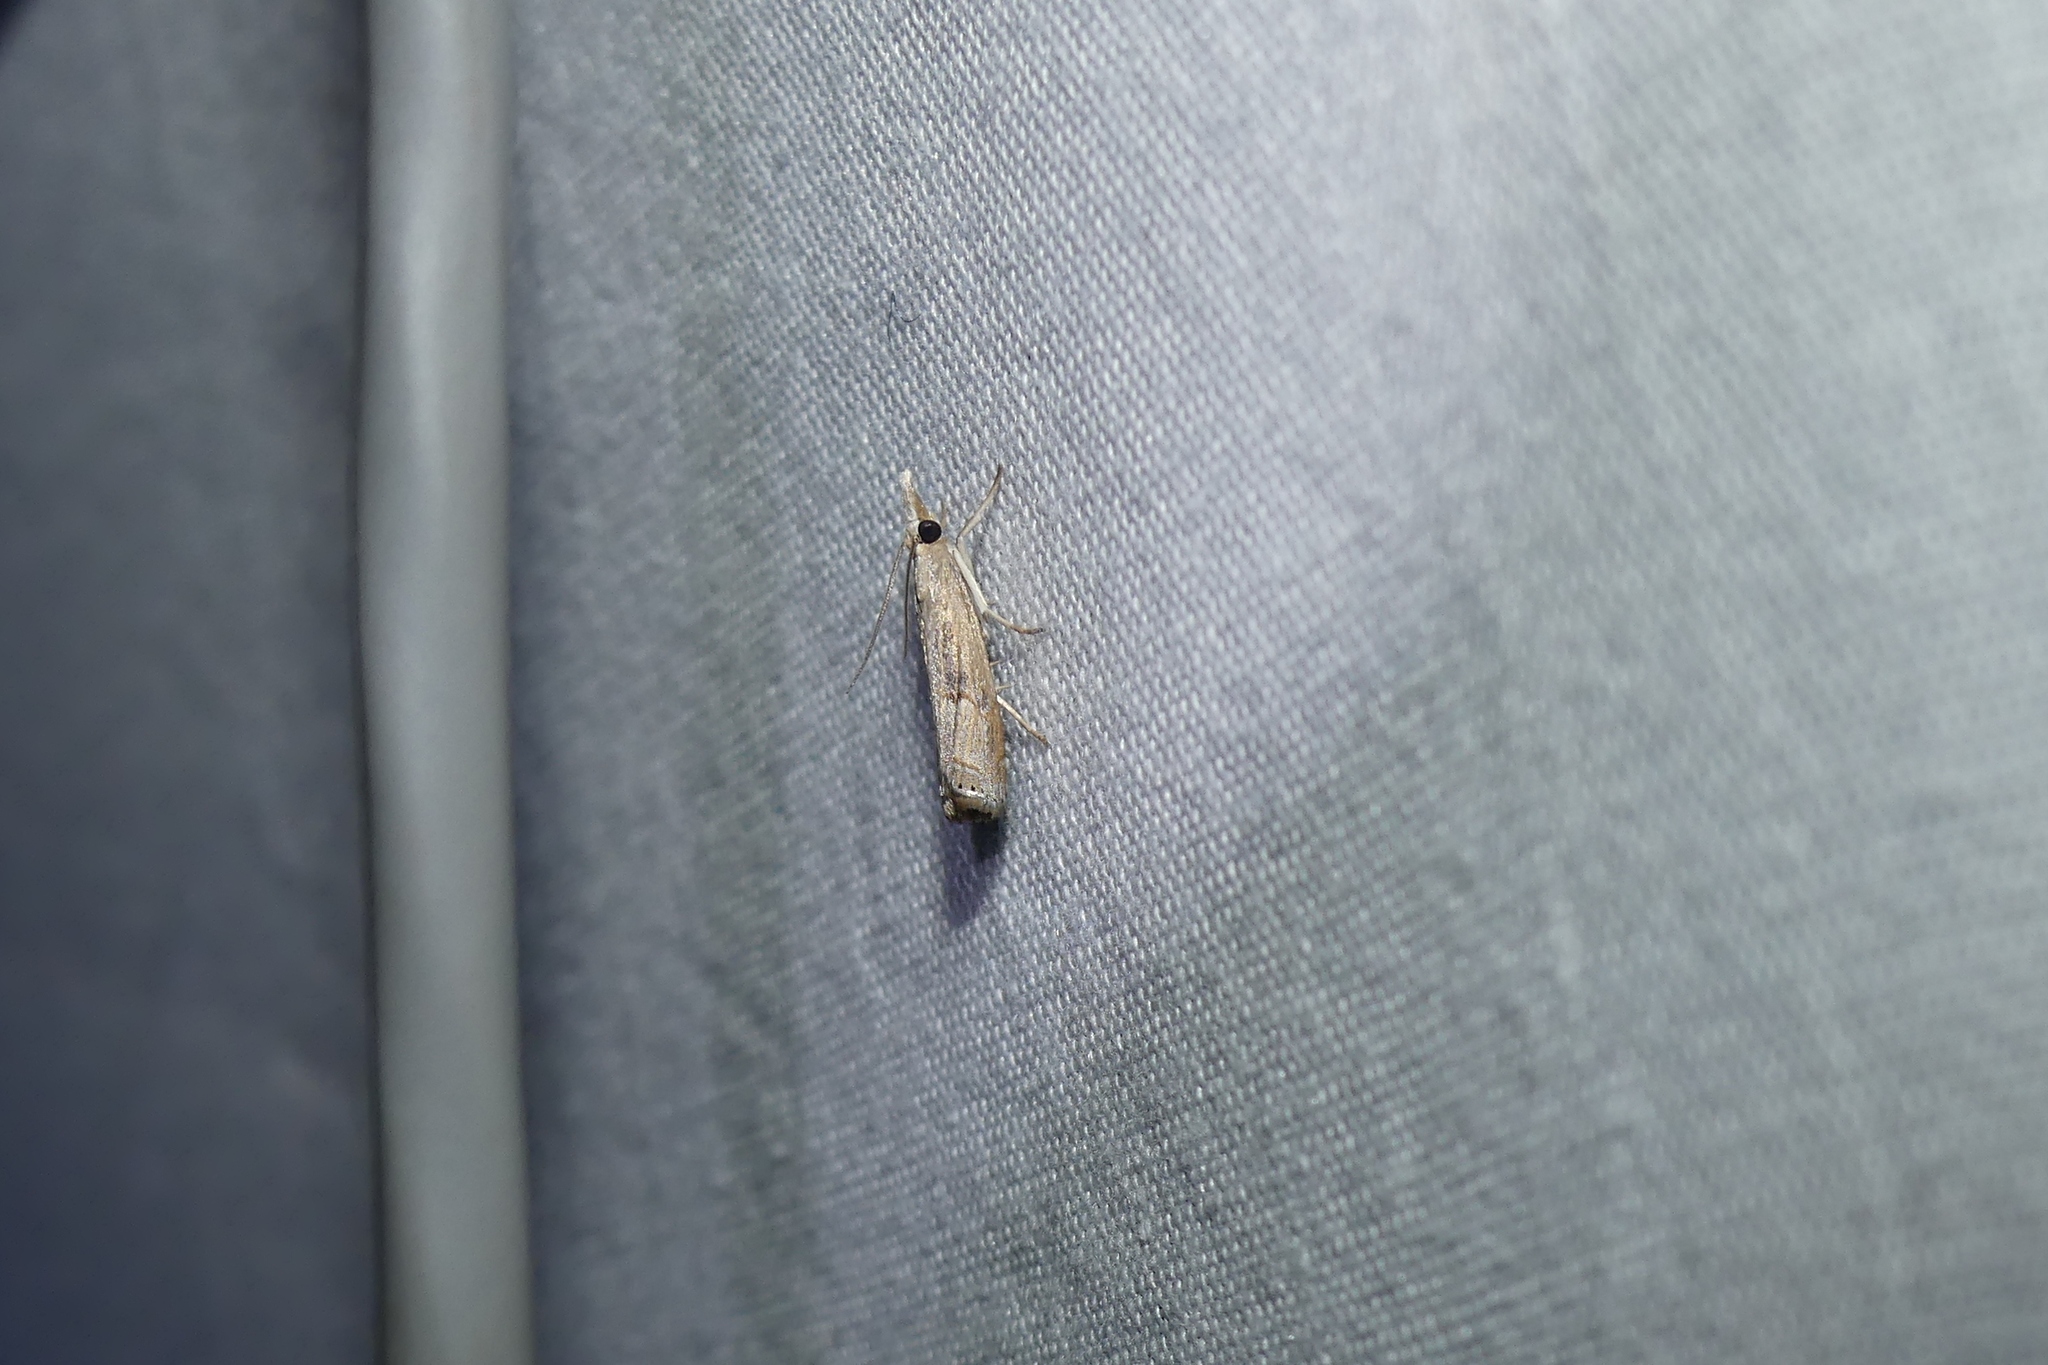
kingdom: Animalia
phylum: Arthropoda
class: Insecta
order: Lepidoptera
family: Crambidae
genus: Parapediasia
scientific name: Parapediasia teterellus
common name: Bluegrass webworm moth
